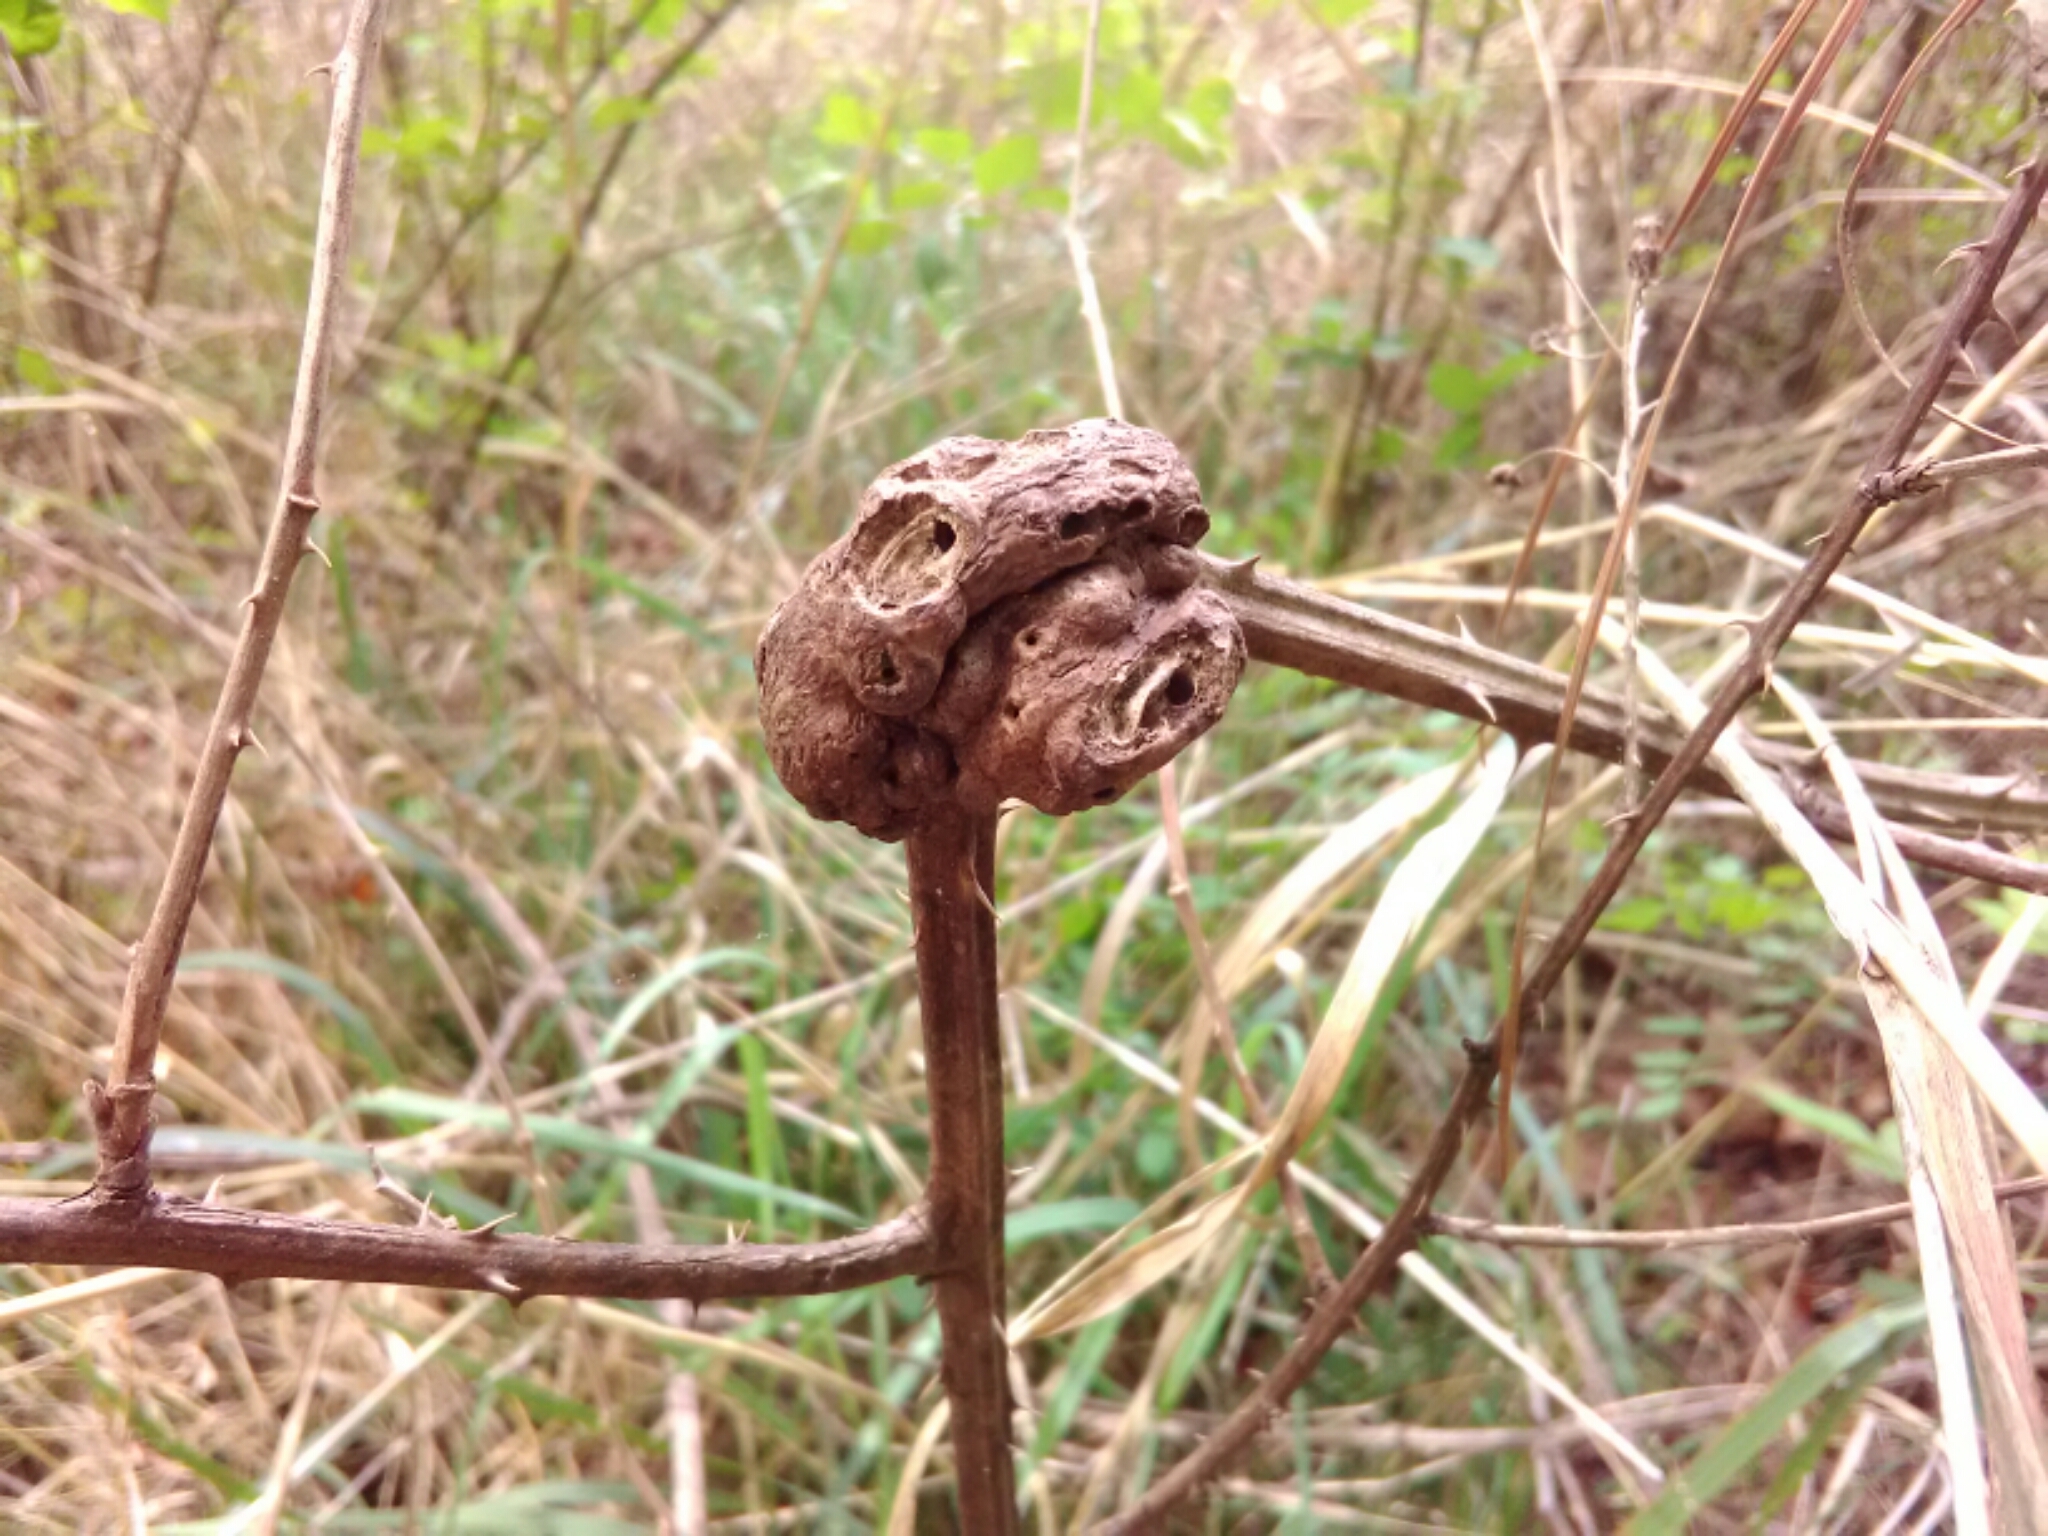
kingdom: Animalia
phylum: Arthropoda
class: Insecta
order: Hymenoptera
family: Cynipidae
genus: Diastrophus
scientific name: Diastrophus
